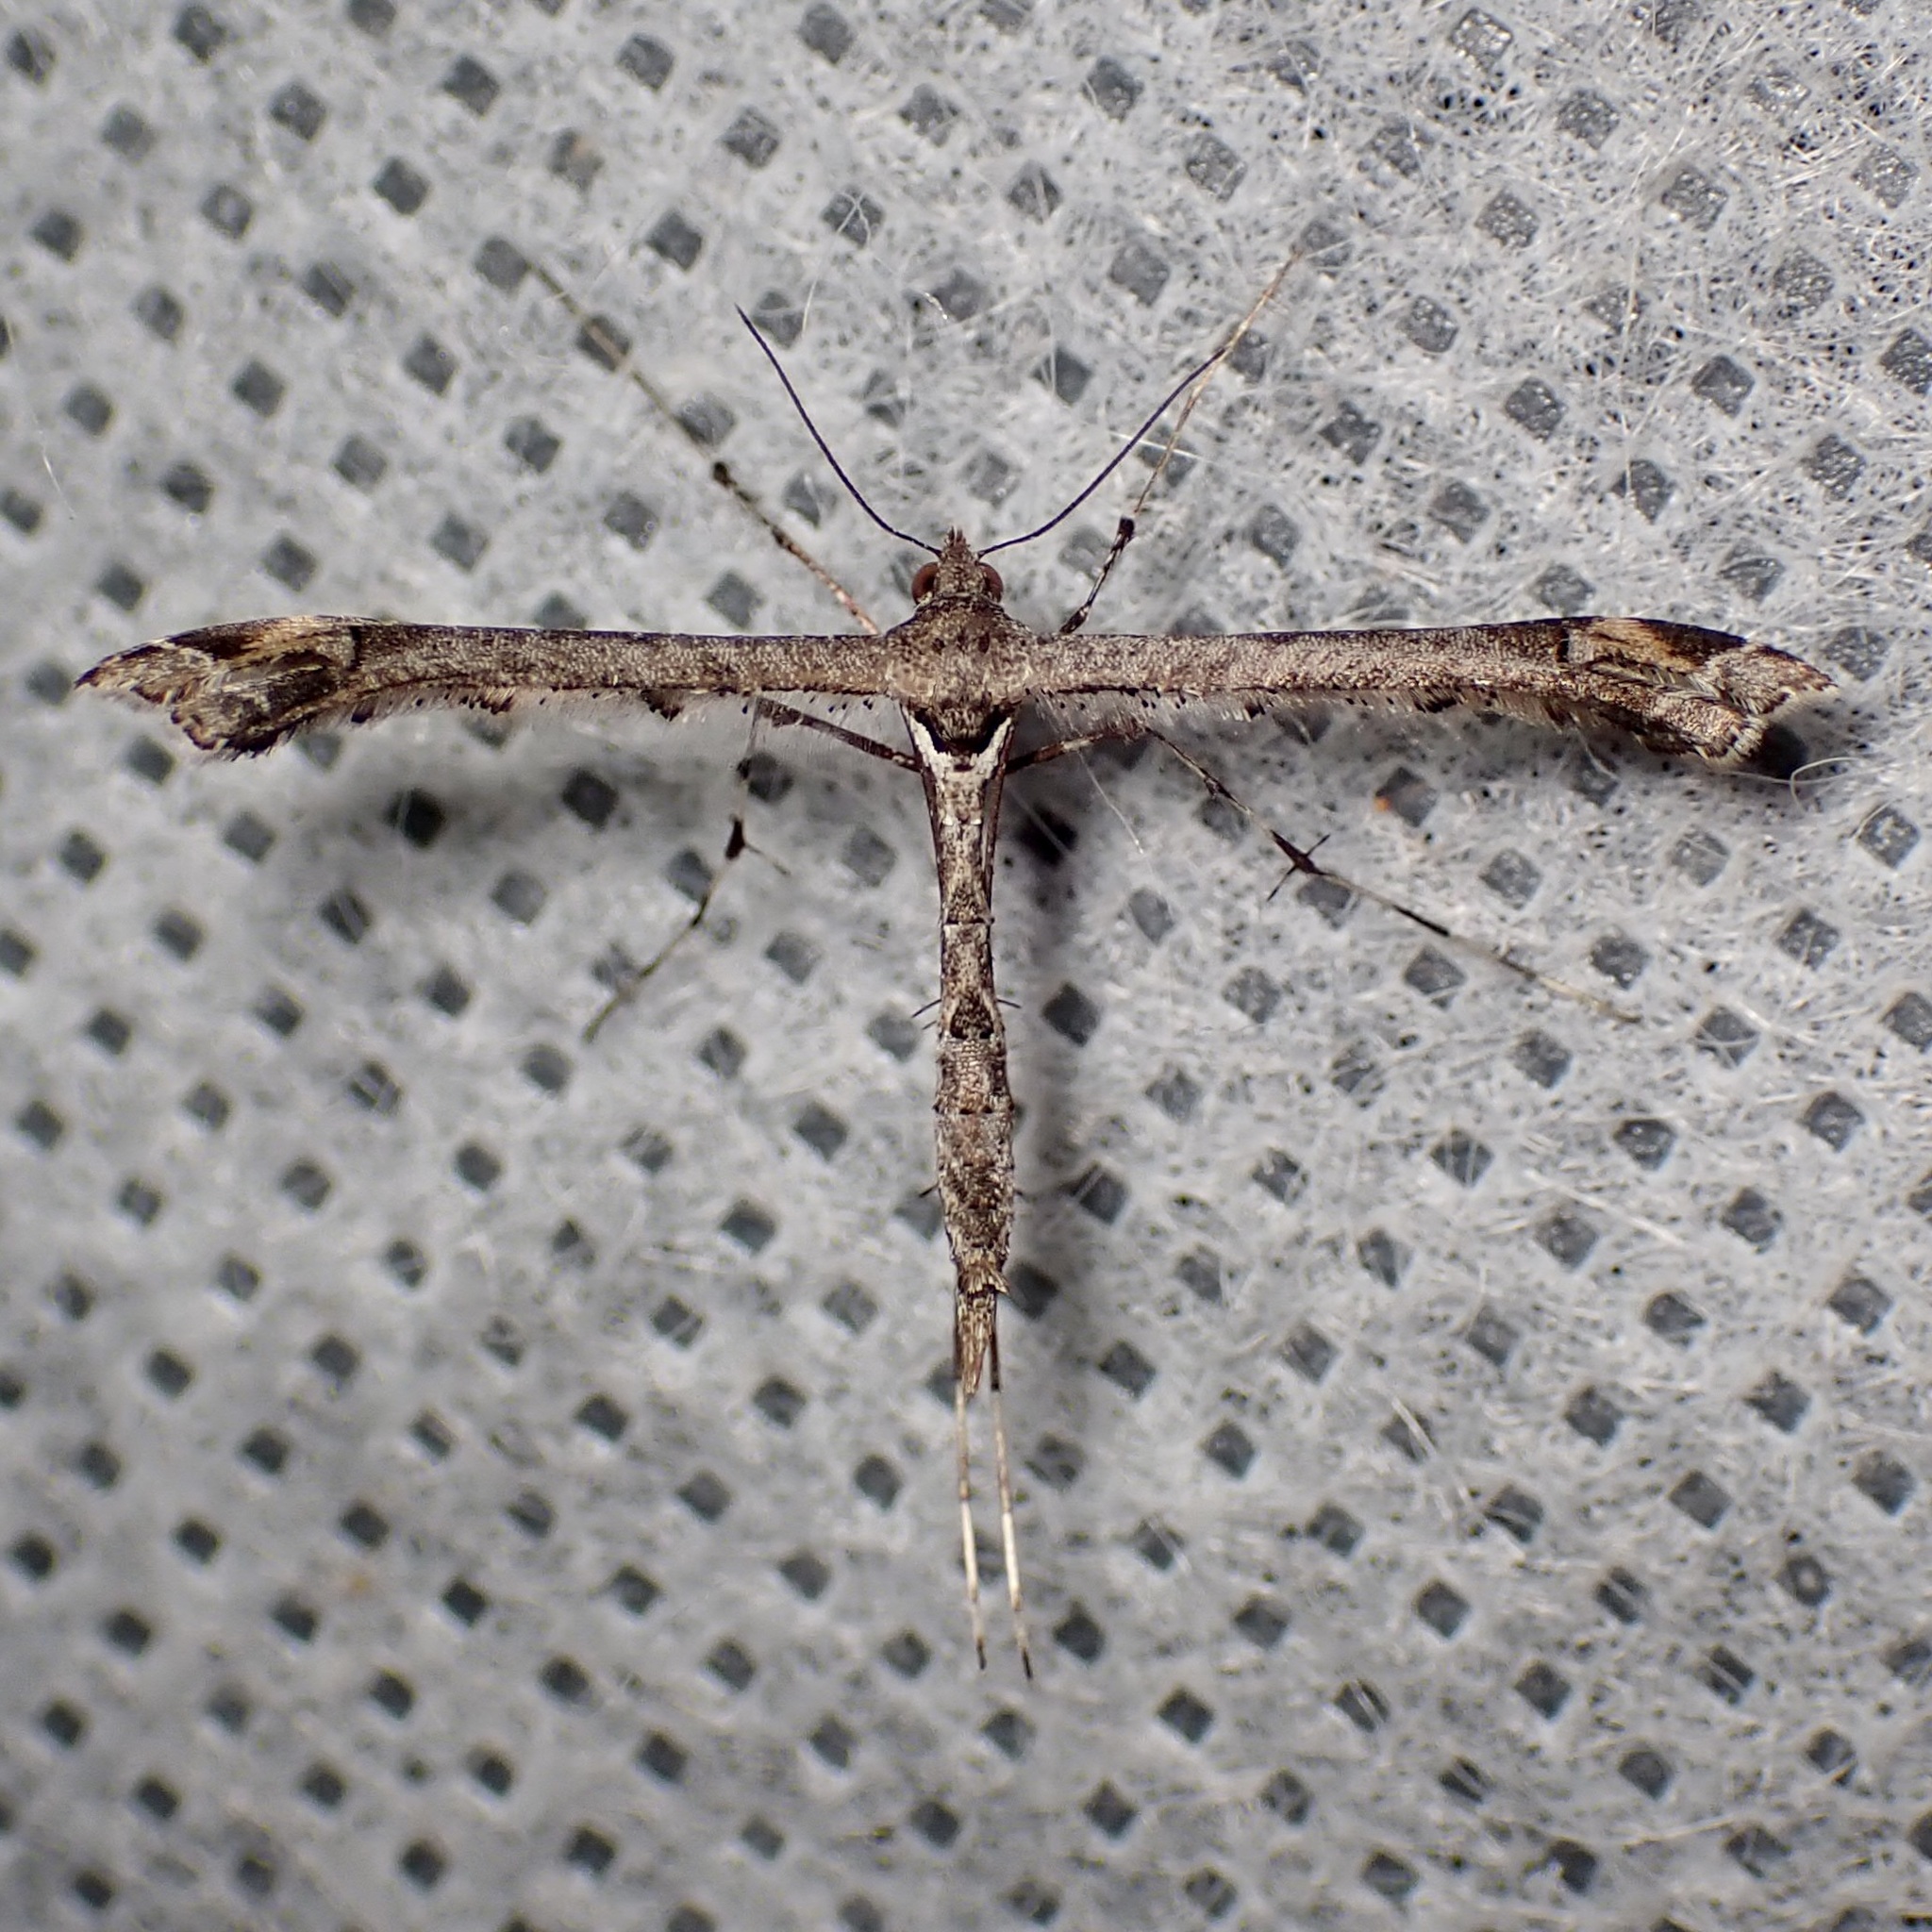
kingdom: Animalia
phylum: Arthropoda
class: Insecta
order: Lepidoptera
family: Pterophoridae
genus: Anstenoptilia
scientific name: Anstenoptilia marmarodactyla
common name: Moth
